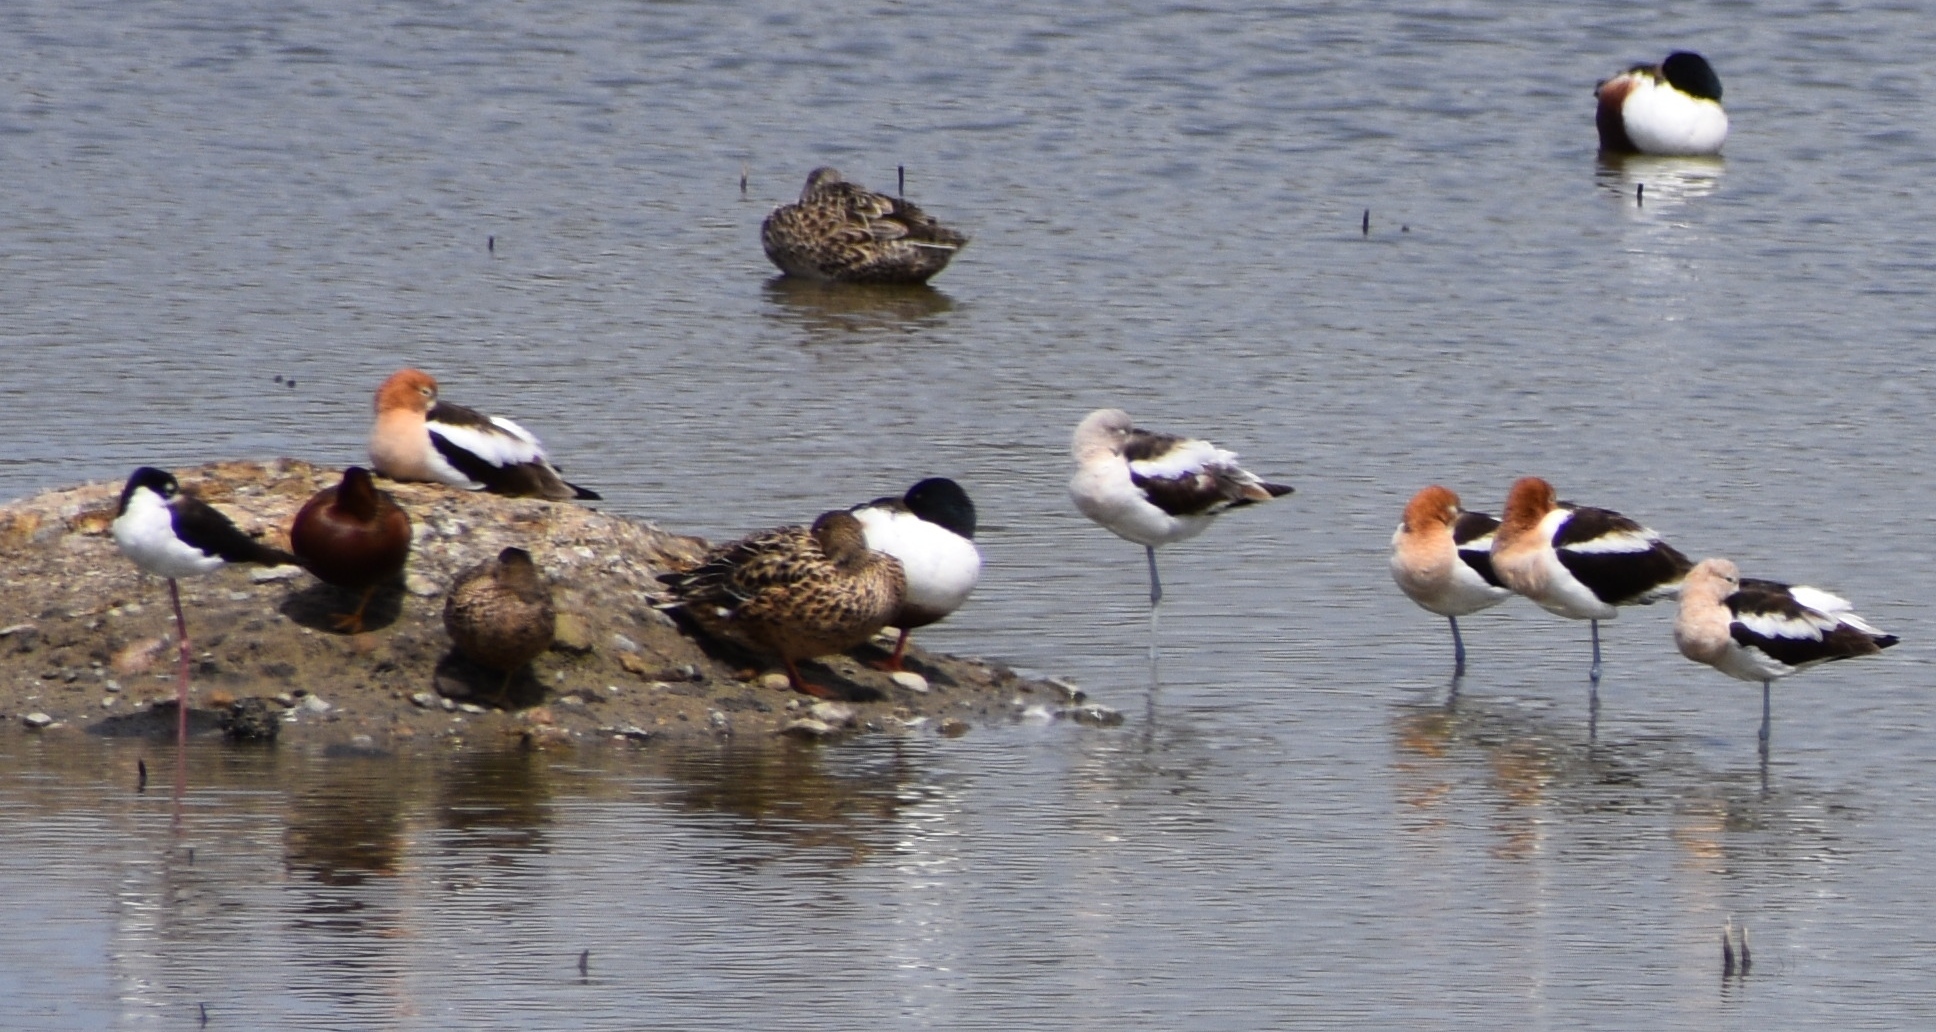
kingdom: Animalia
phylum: Chordata
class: Aves
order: Charadriiformes
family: Recurvirostridae
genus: Recurvirostra
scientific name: Recurvirostra americana
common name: American avocet
